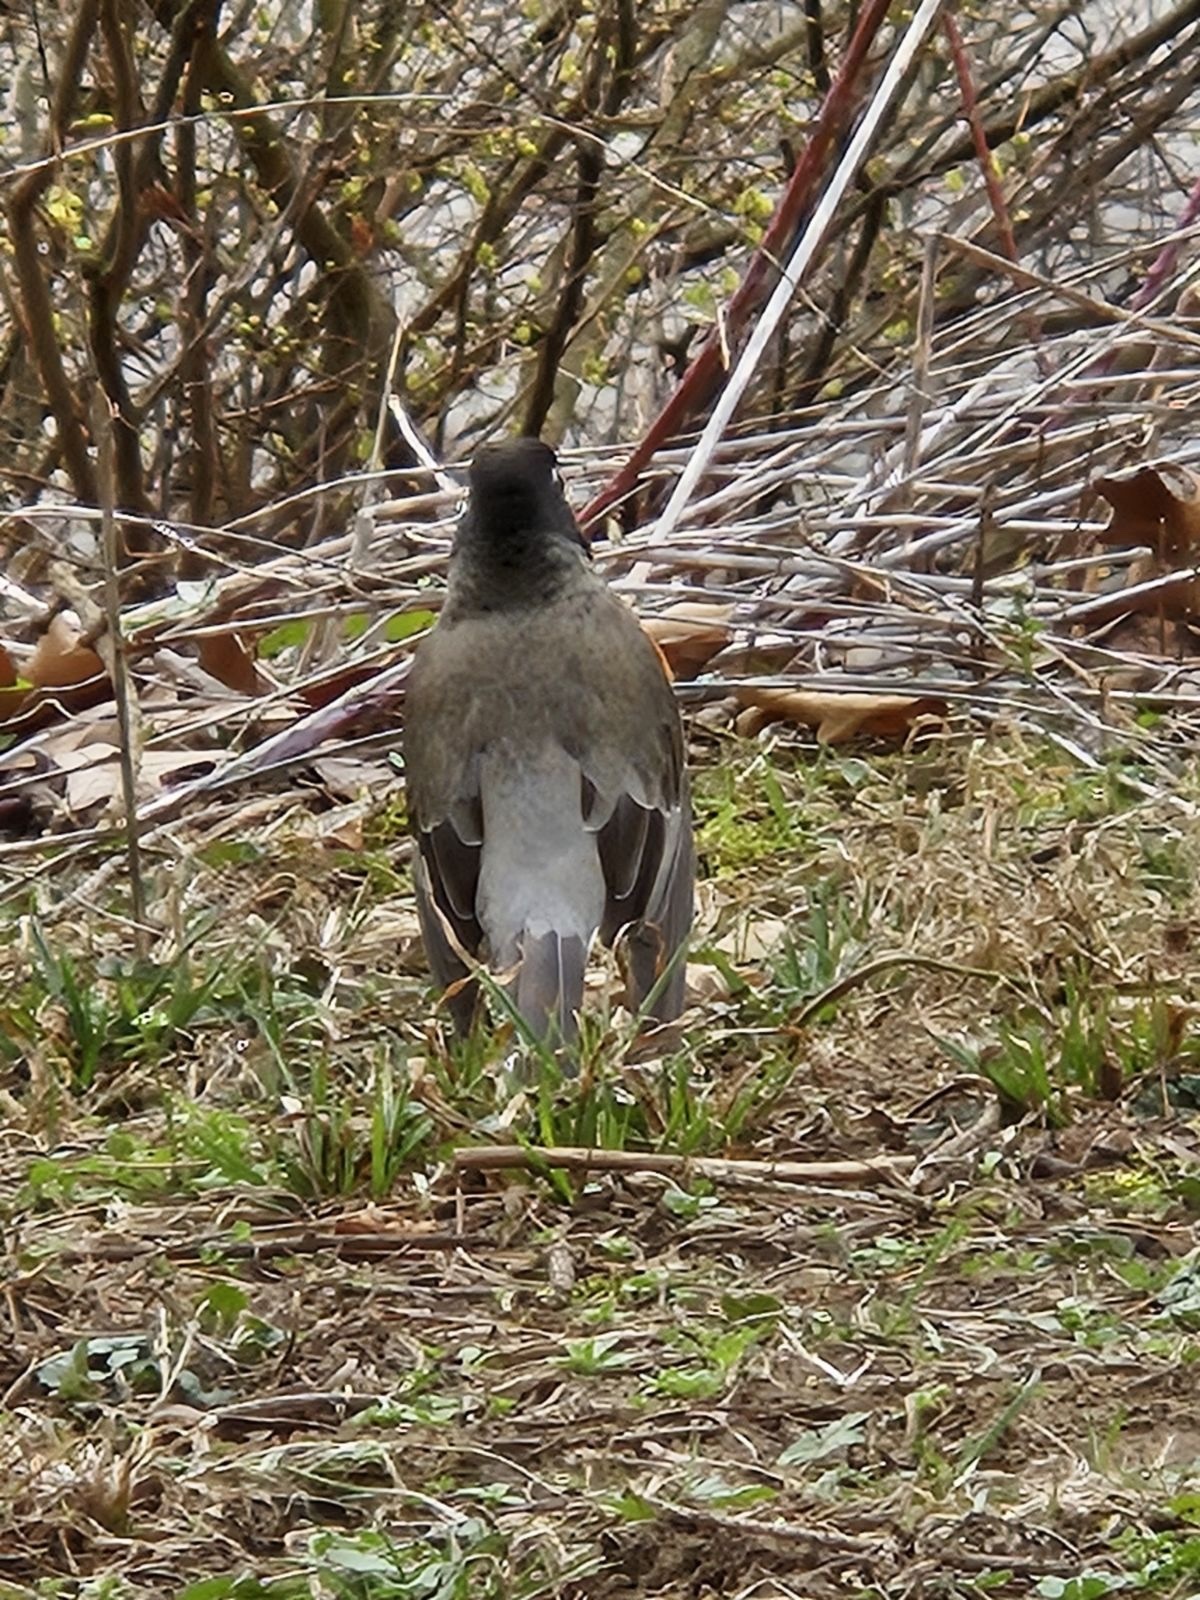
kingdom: Animalia
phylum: Chordata
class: Aves
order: Passeriformes
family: Turdidae
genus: Turdus
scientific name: Turdus migratorius
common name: American robin
